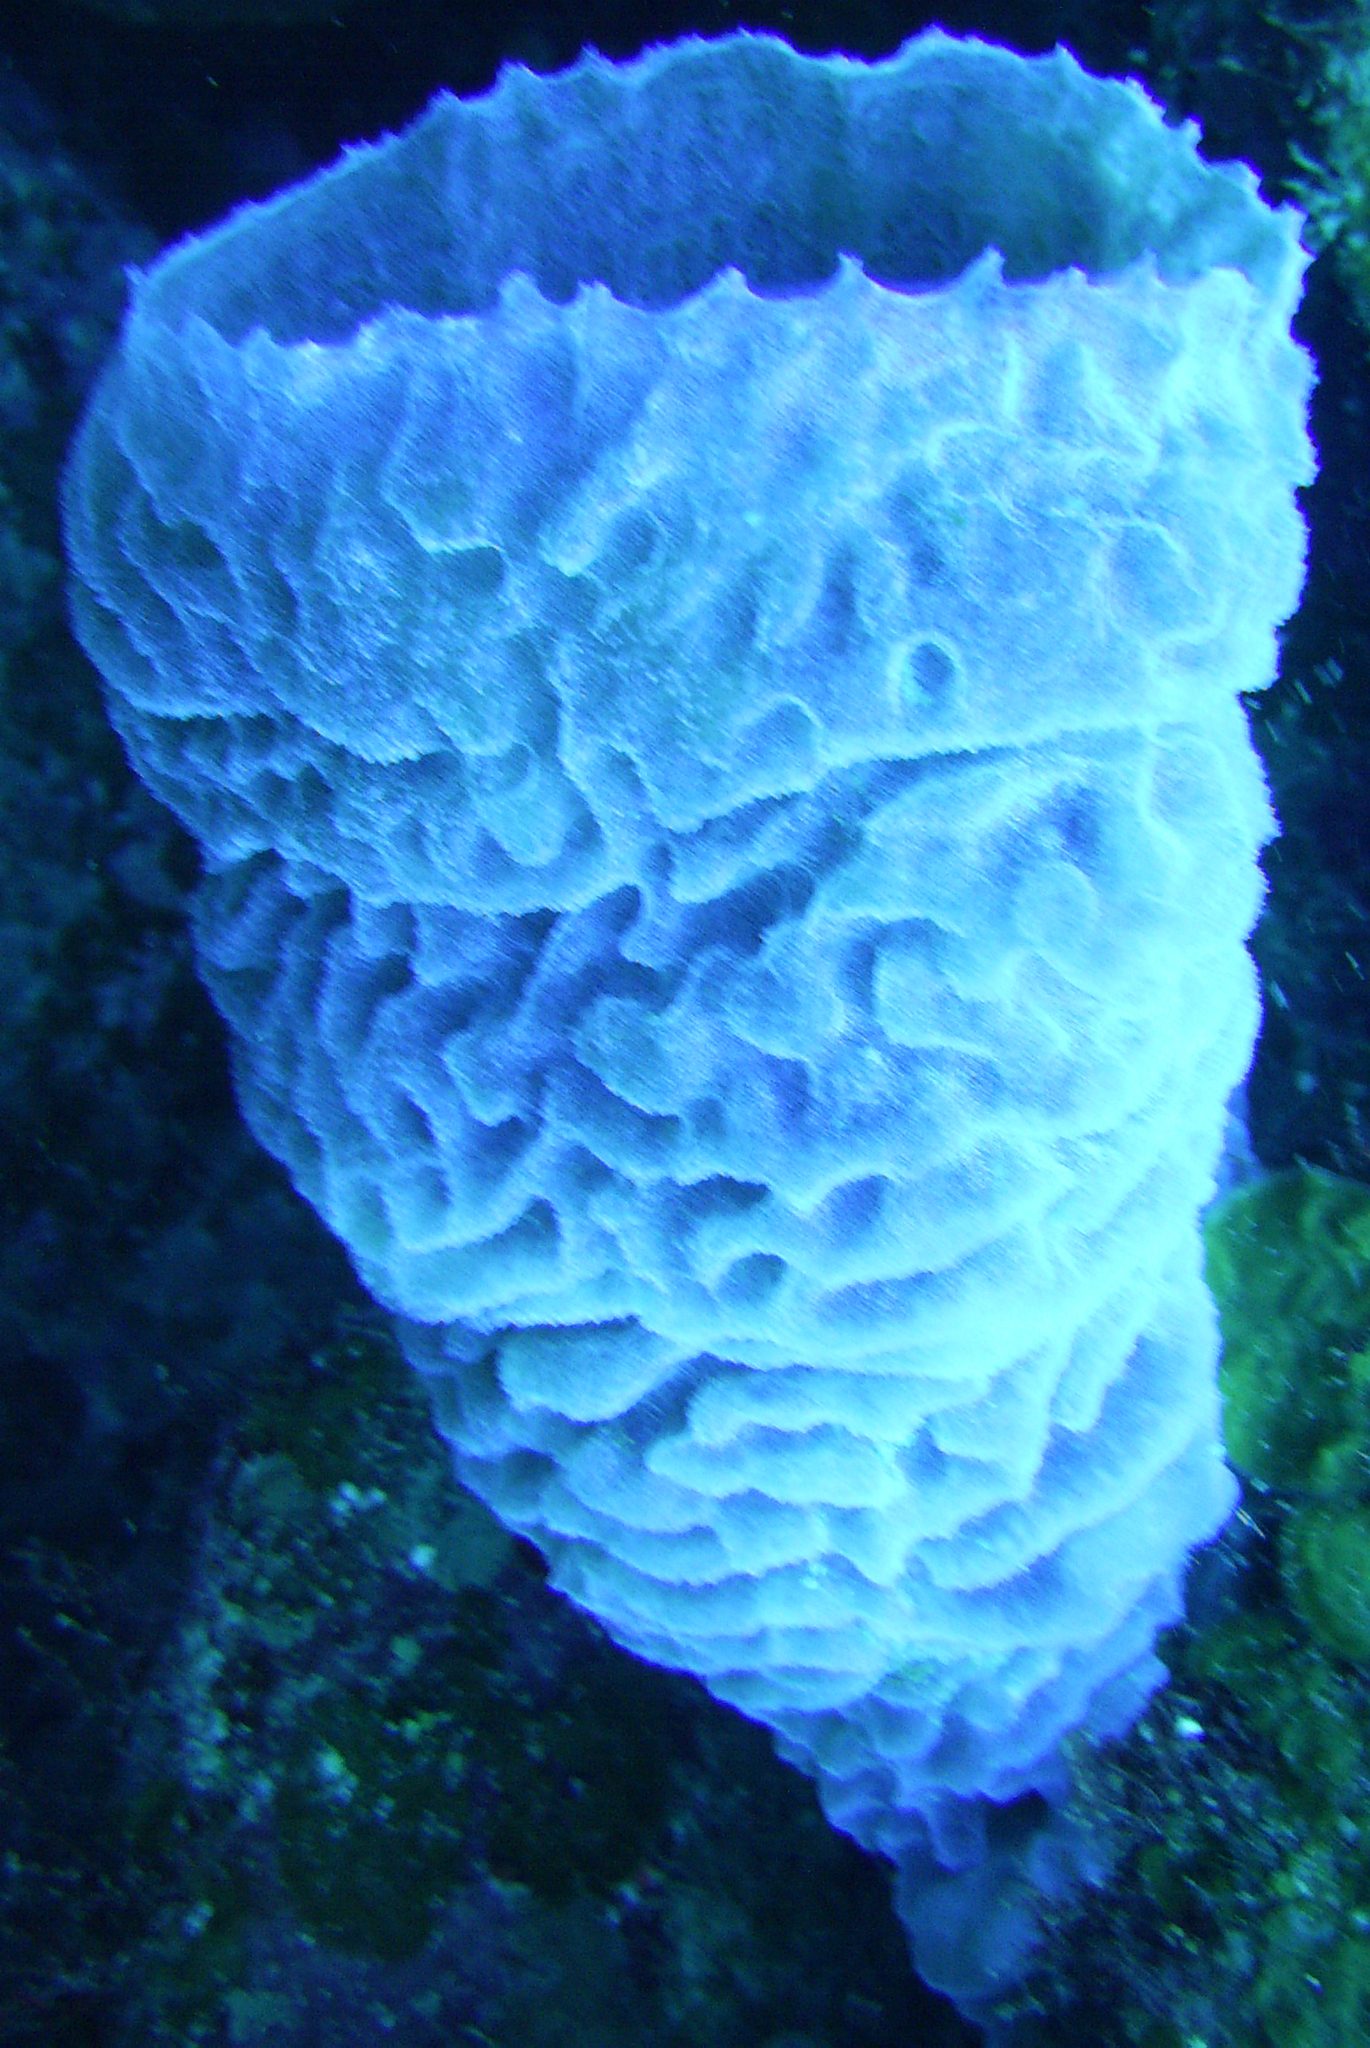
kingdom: Animalia
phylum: Porifera
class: Demospongiae
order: Haplosclerida
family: Callyspongiidae
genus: Callyspongia
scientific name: Callyspongia plicifera
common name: Azure vase sponge
